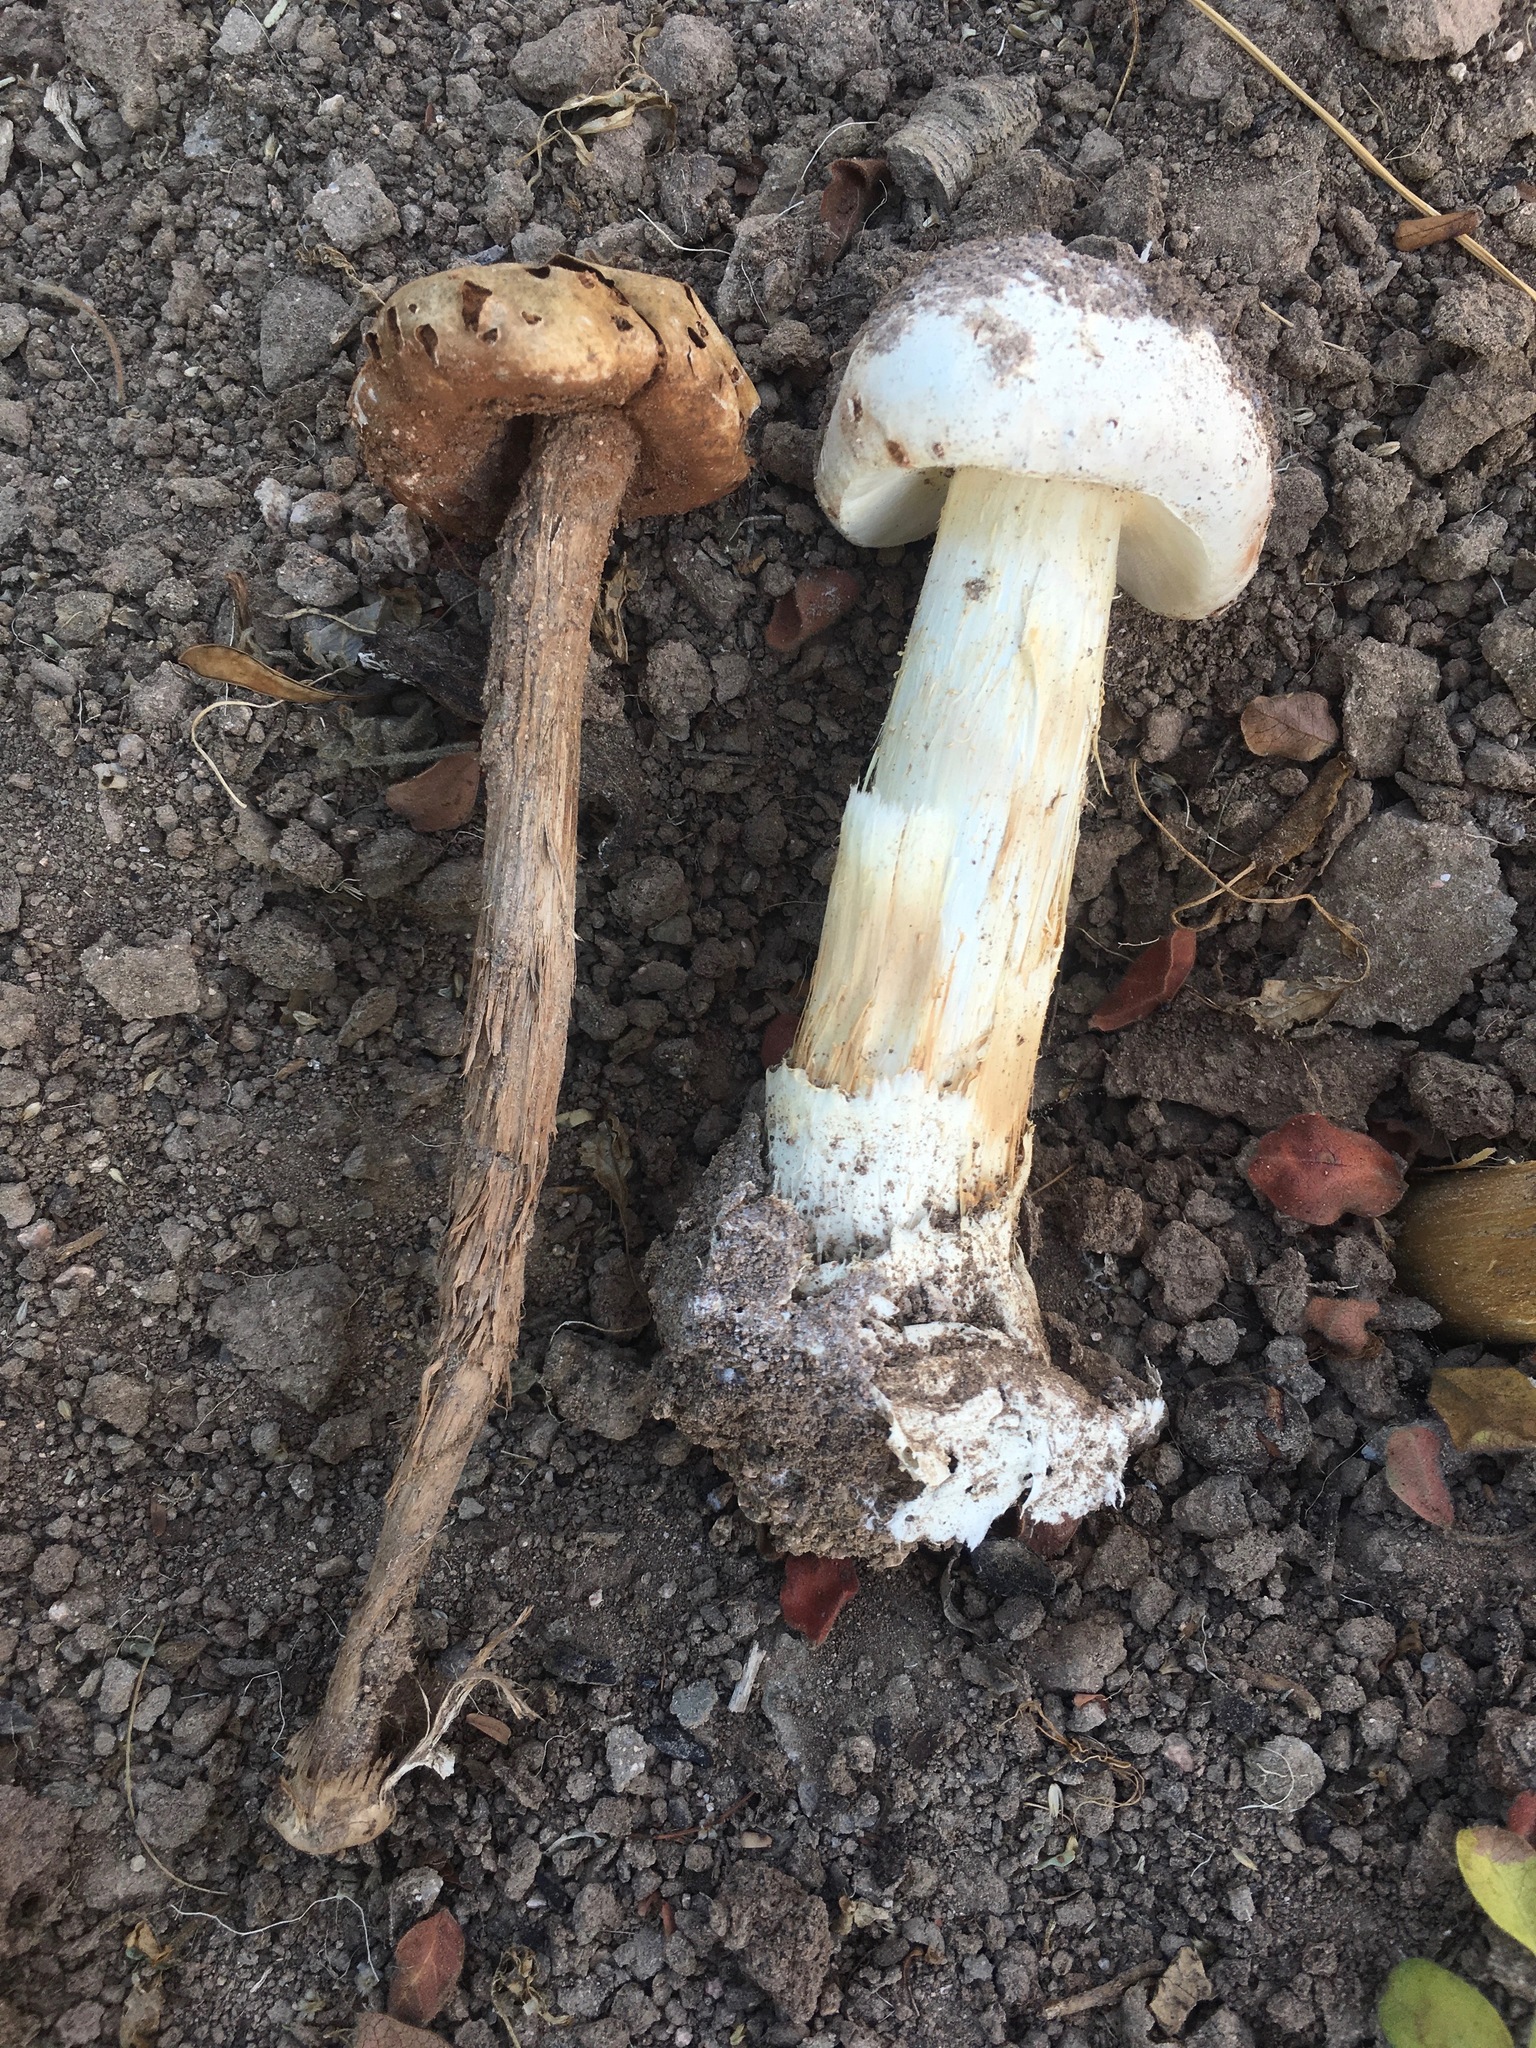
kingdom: Fungi
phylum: Basidiomycota
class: Agaricomycetes
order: Agaricales
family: Agaricaceae
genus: Battarreoides
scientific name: Battarreoides diguetii
